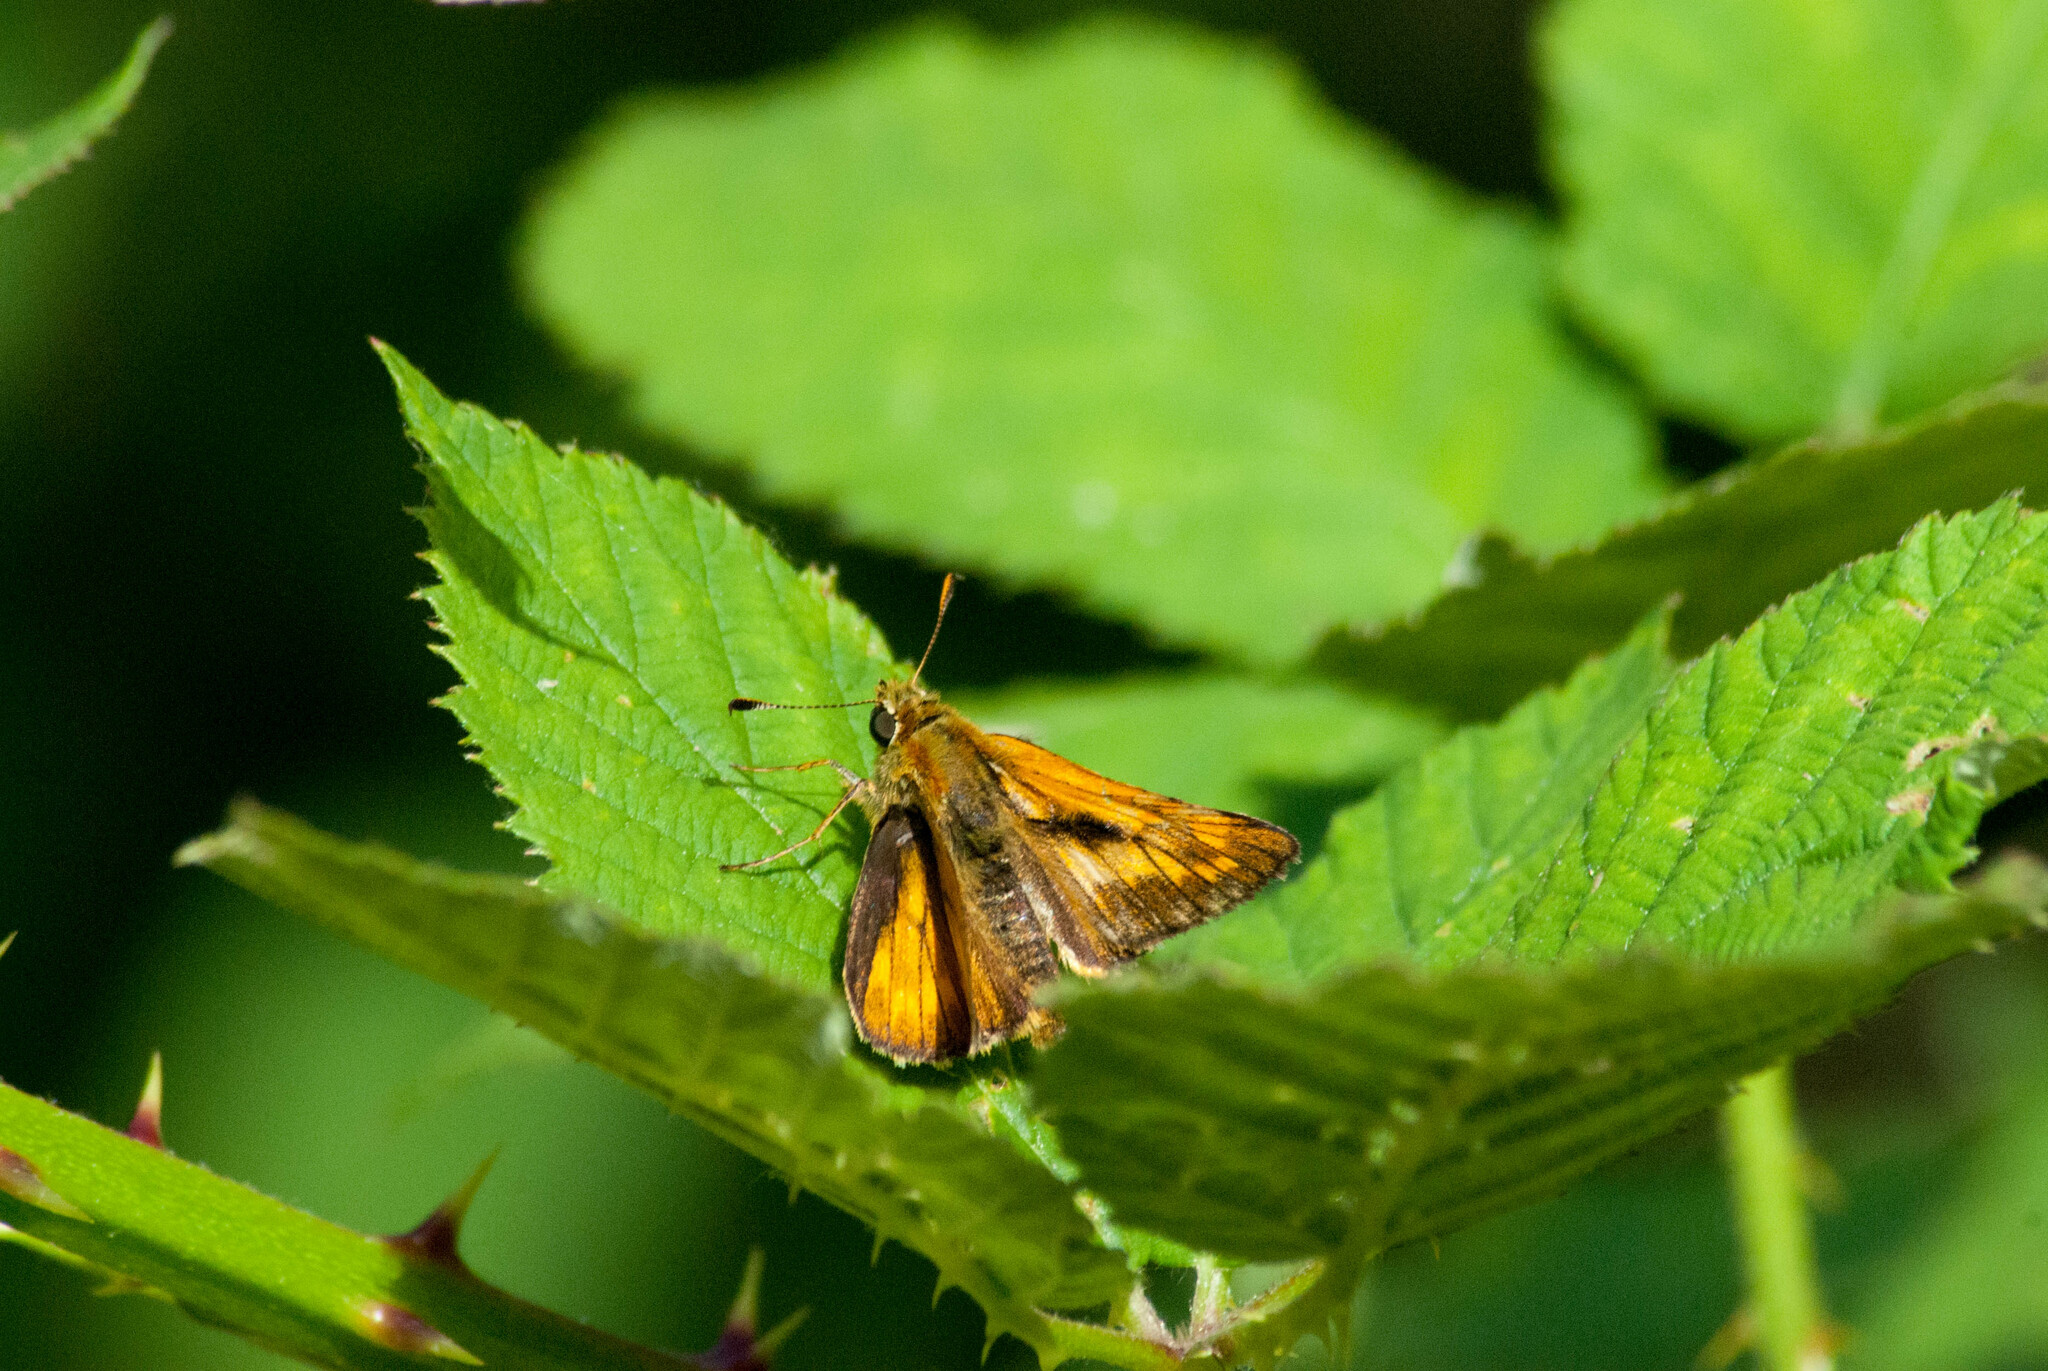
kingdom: Animalia
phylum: Arthropoda
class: Insecta
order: Lepidoptera
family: Hesperiidae
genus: Ochlodes
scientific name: Ochlodes venata
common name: Large skipper
